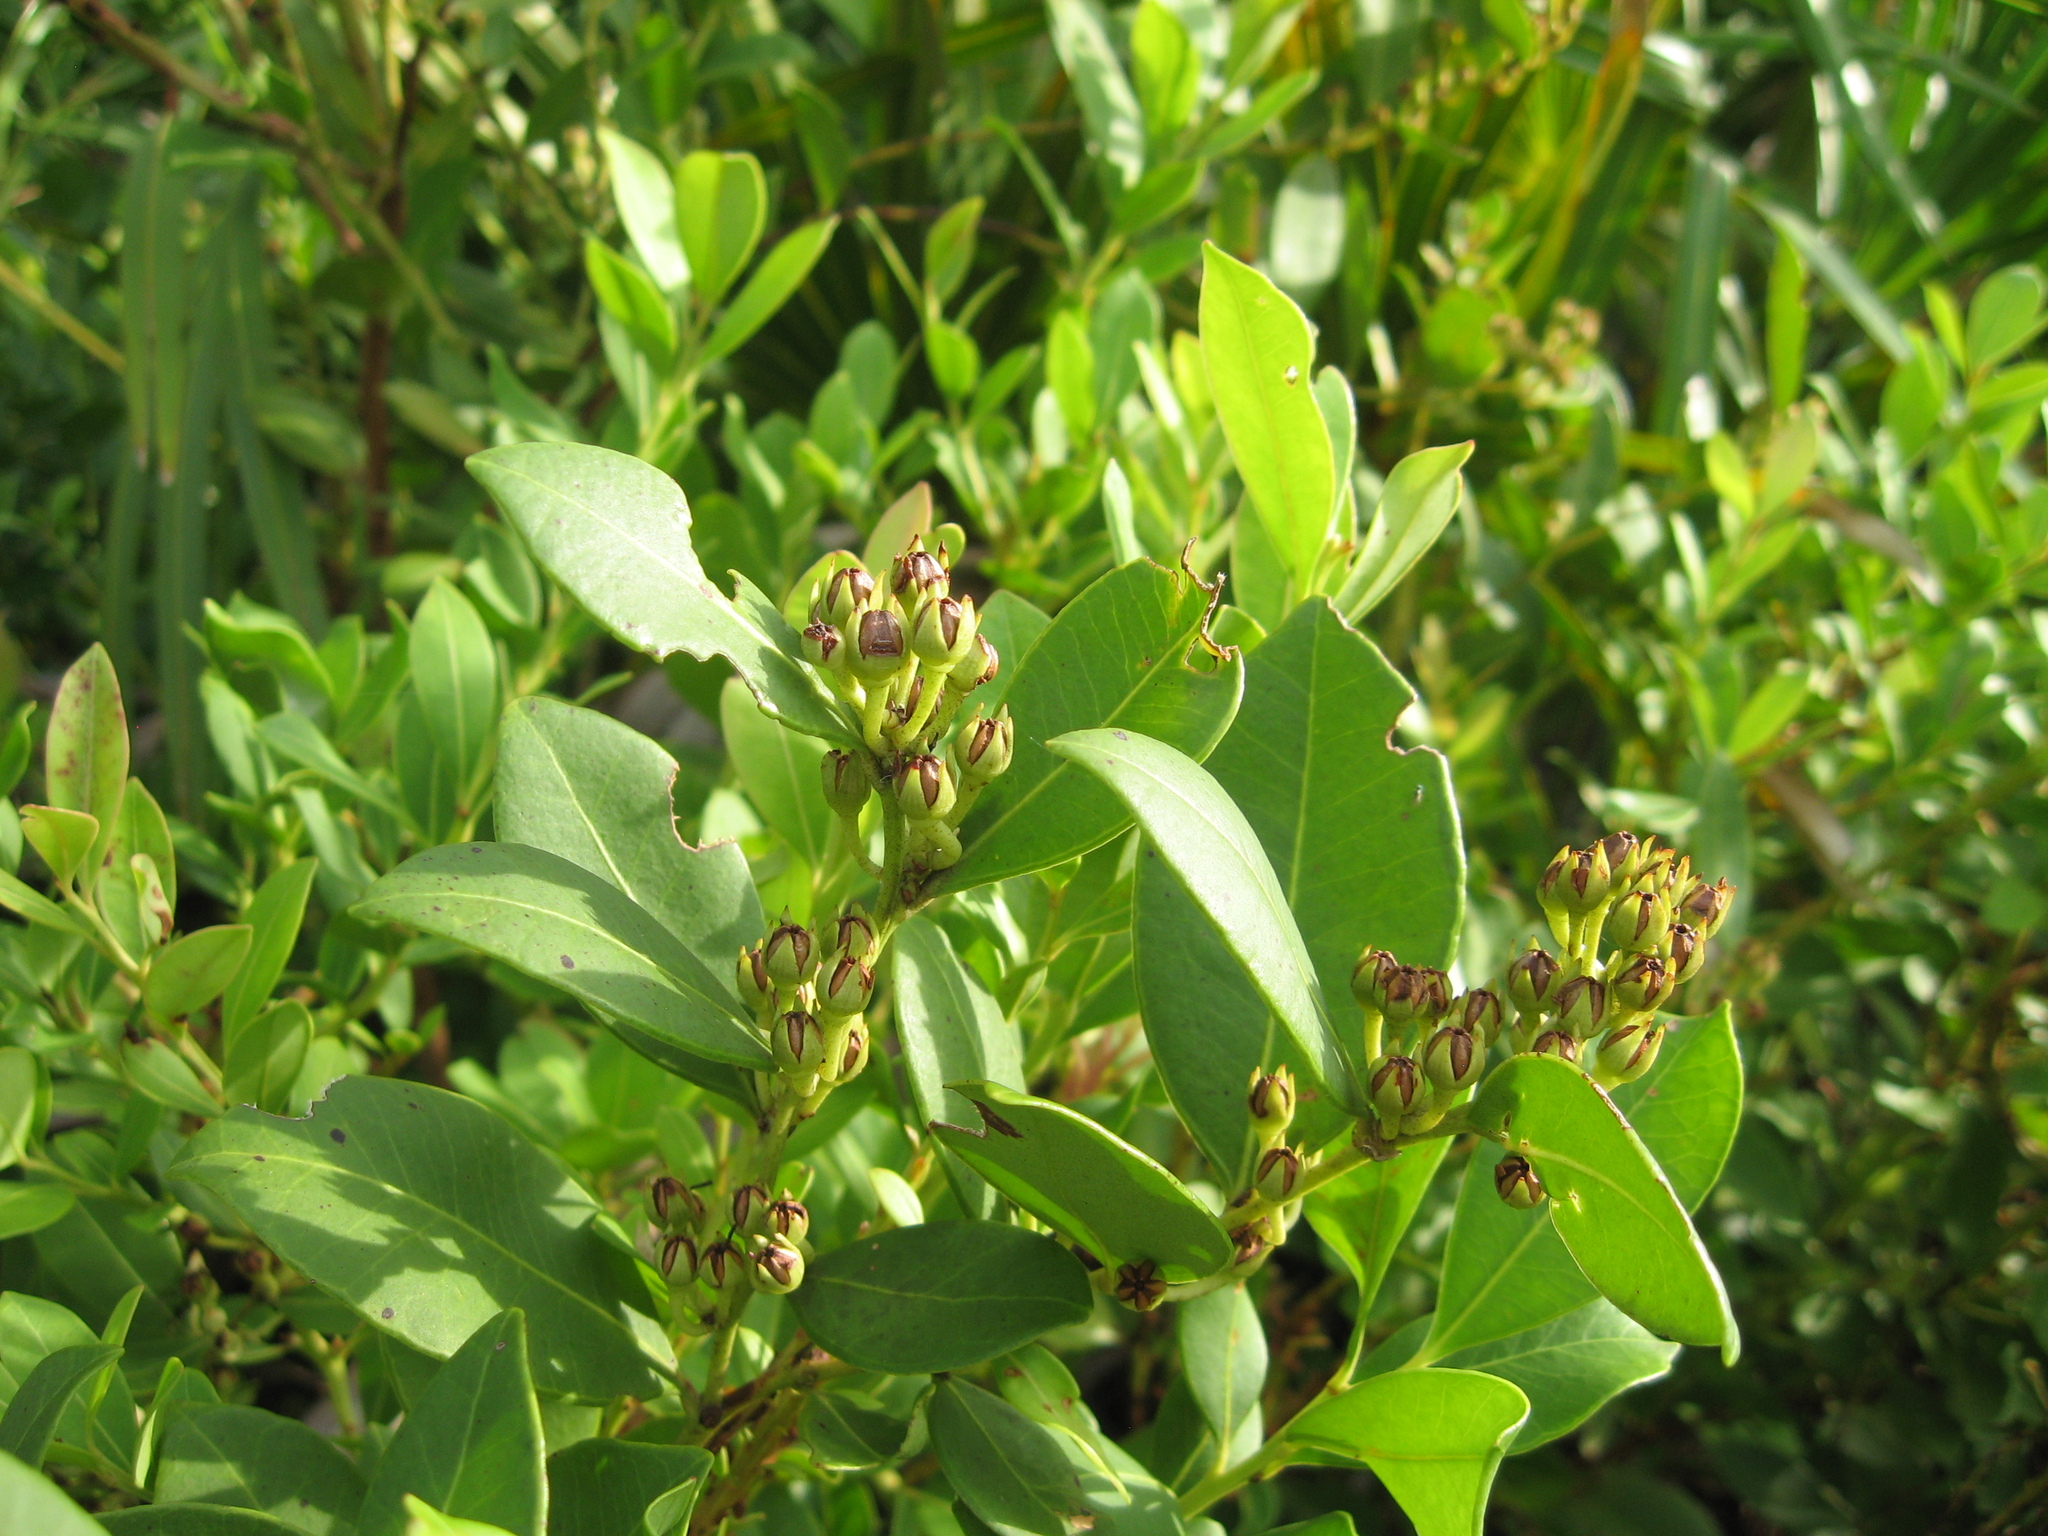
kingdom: Plantae
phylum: Tracheophyta
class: Magnoliopsida
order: Ericales
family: Ericaceae
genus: Lyonia
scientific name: Lyonia lucida
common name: Fetterbush
